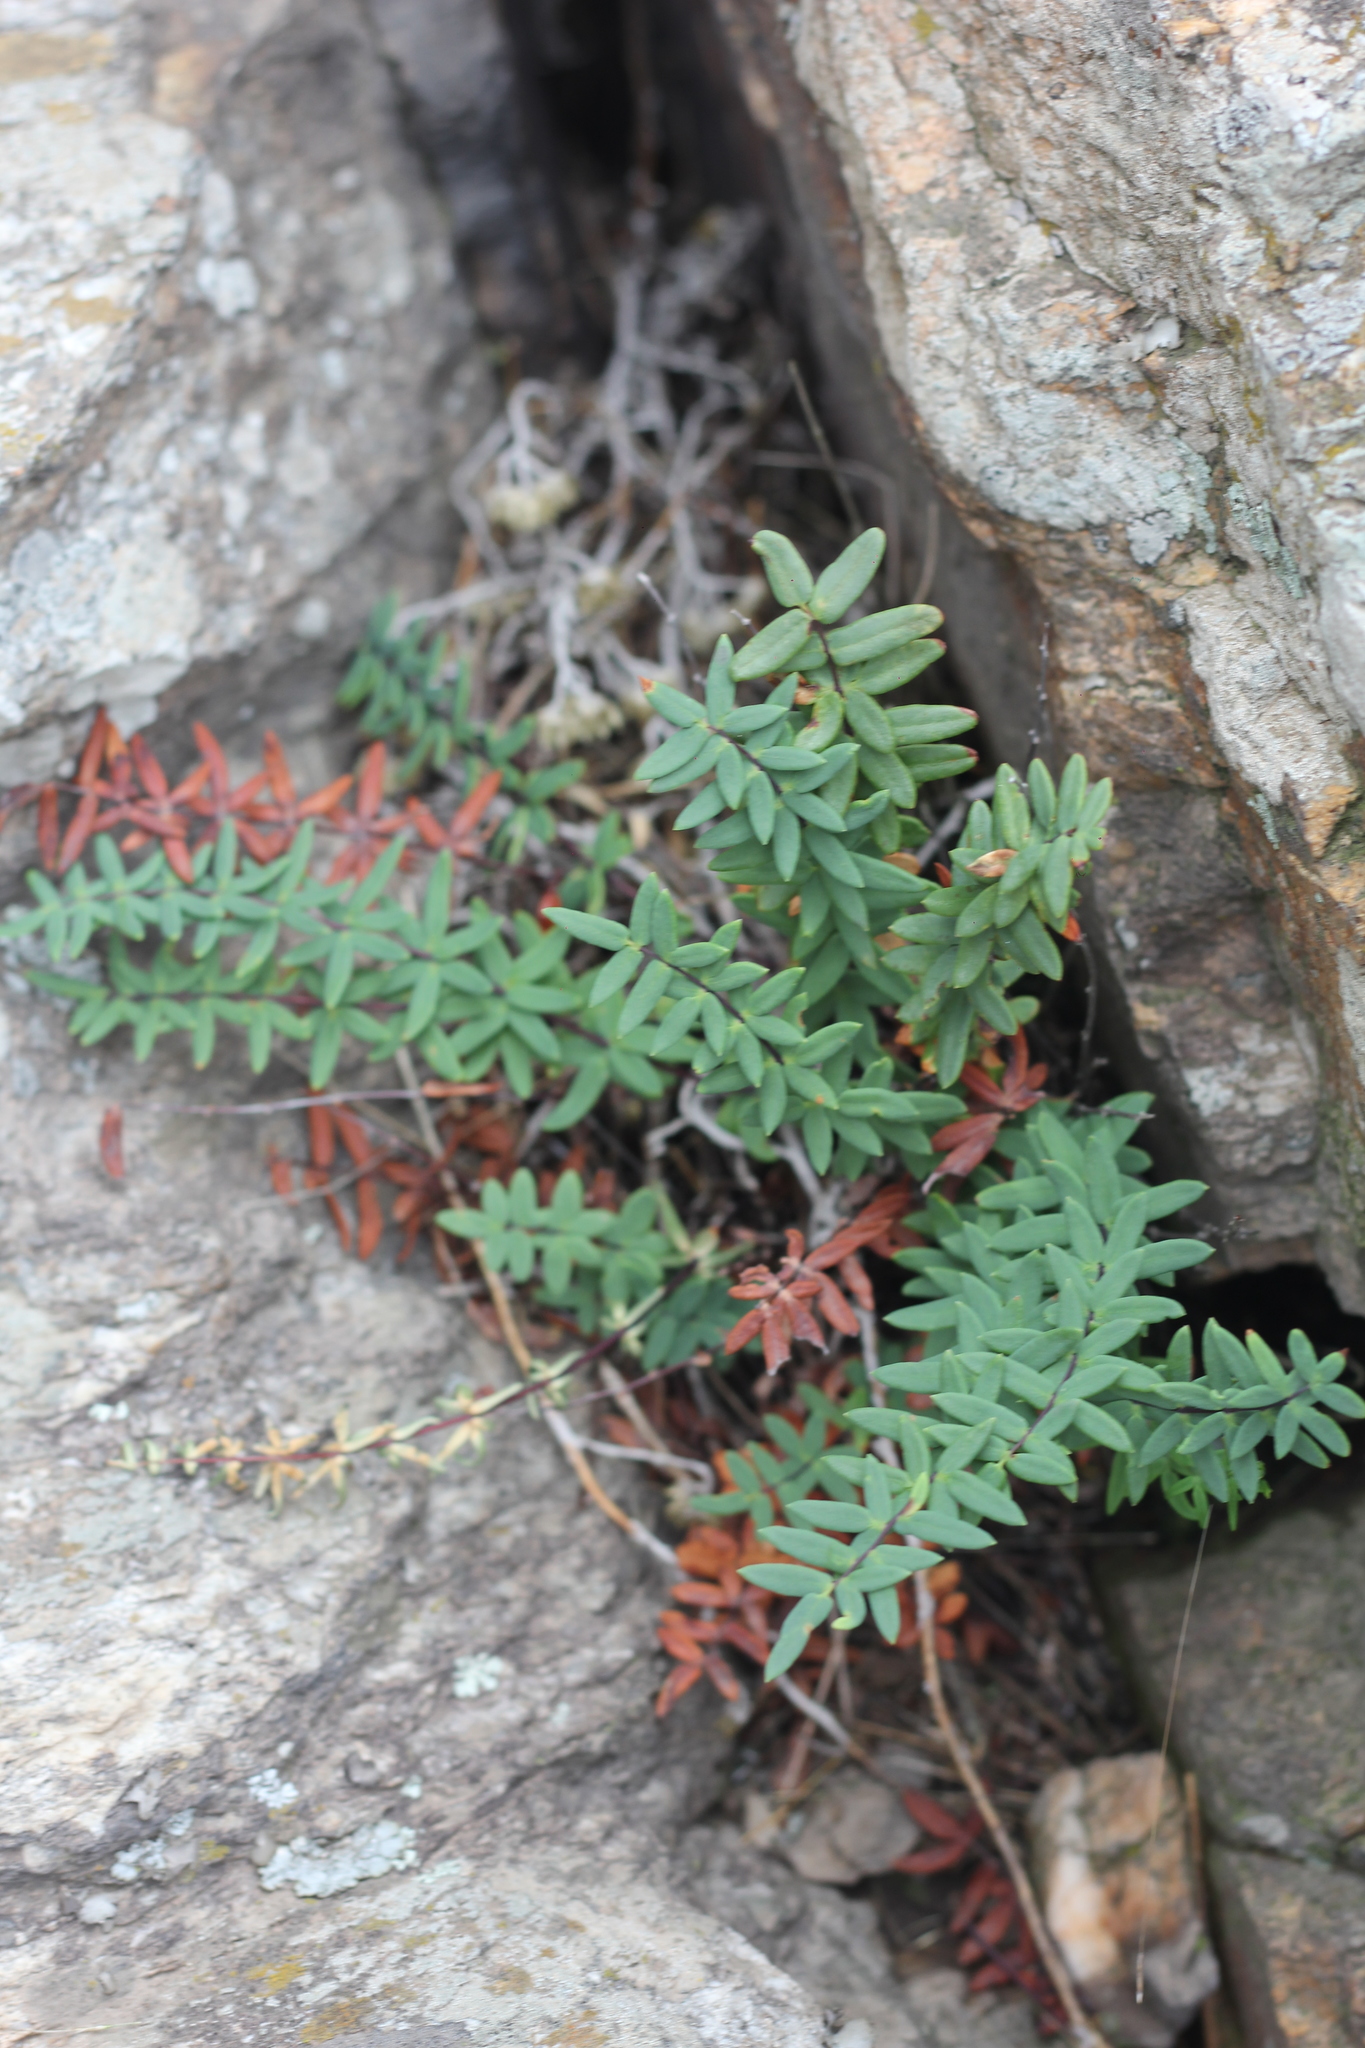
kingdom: Plantae
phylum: Tracheophyta
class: Polypodiopsida
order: Polypodiales
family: Pteridaceae
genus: Pellaea
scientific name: Pellaea ternifolia
